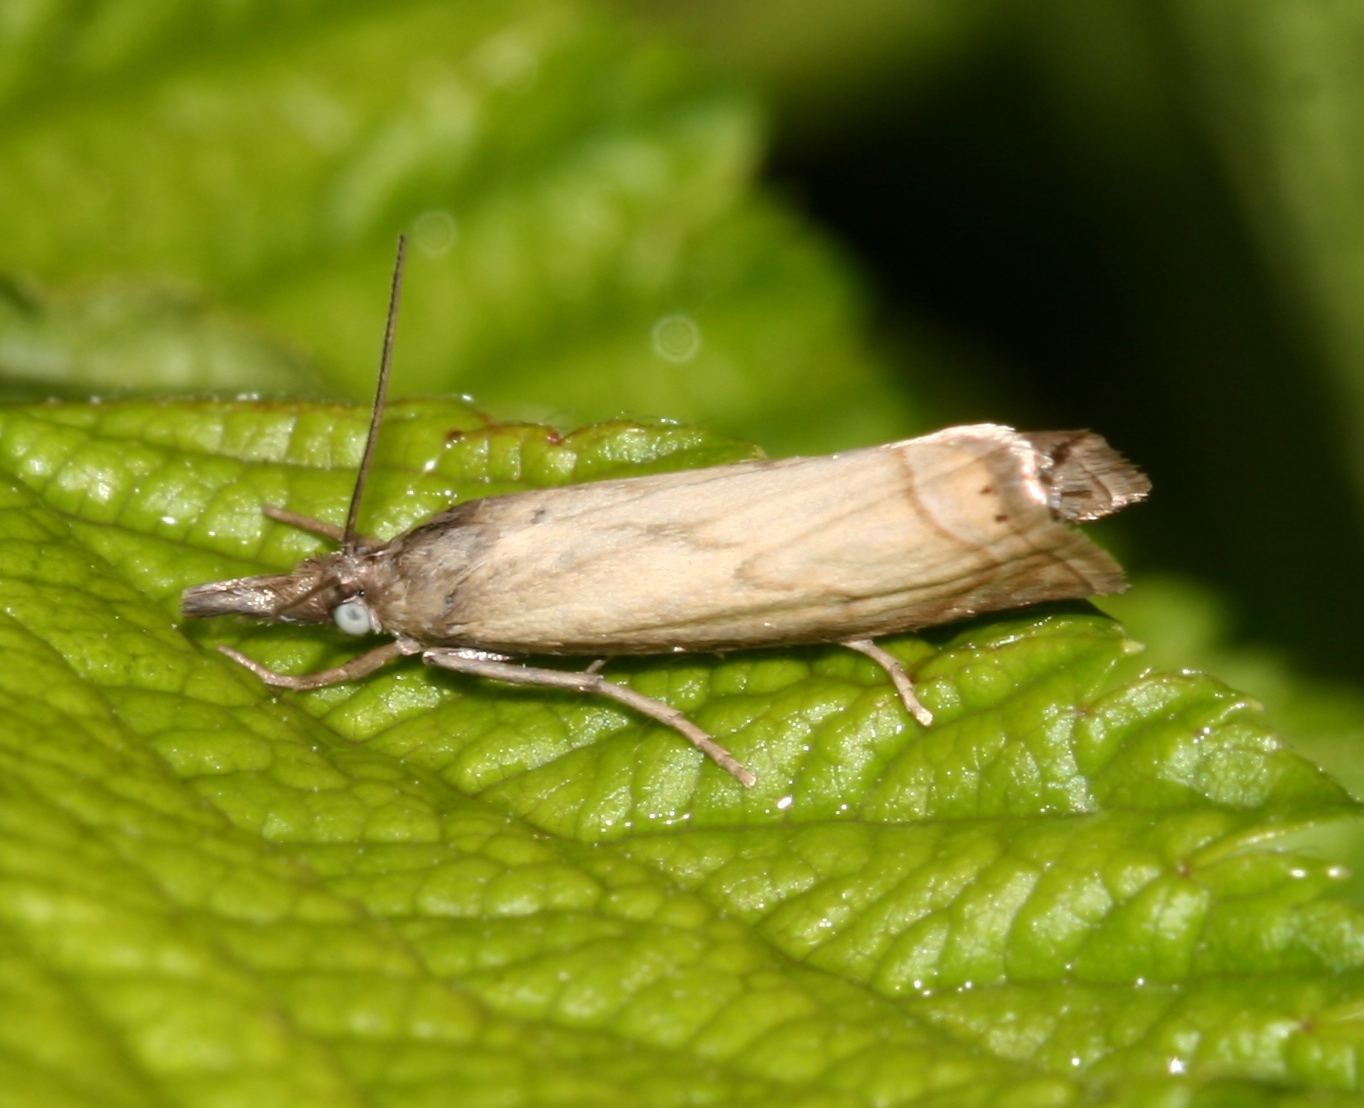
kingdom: Animalia
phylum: Arthropoda
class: Insecta
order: Lepidoptera
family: Crambidae
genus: Chrysoteuchia
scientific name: Chrysoteuchia culmella
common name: Garden grass-veneer
